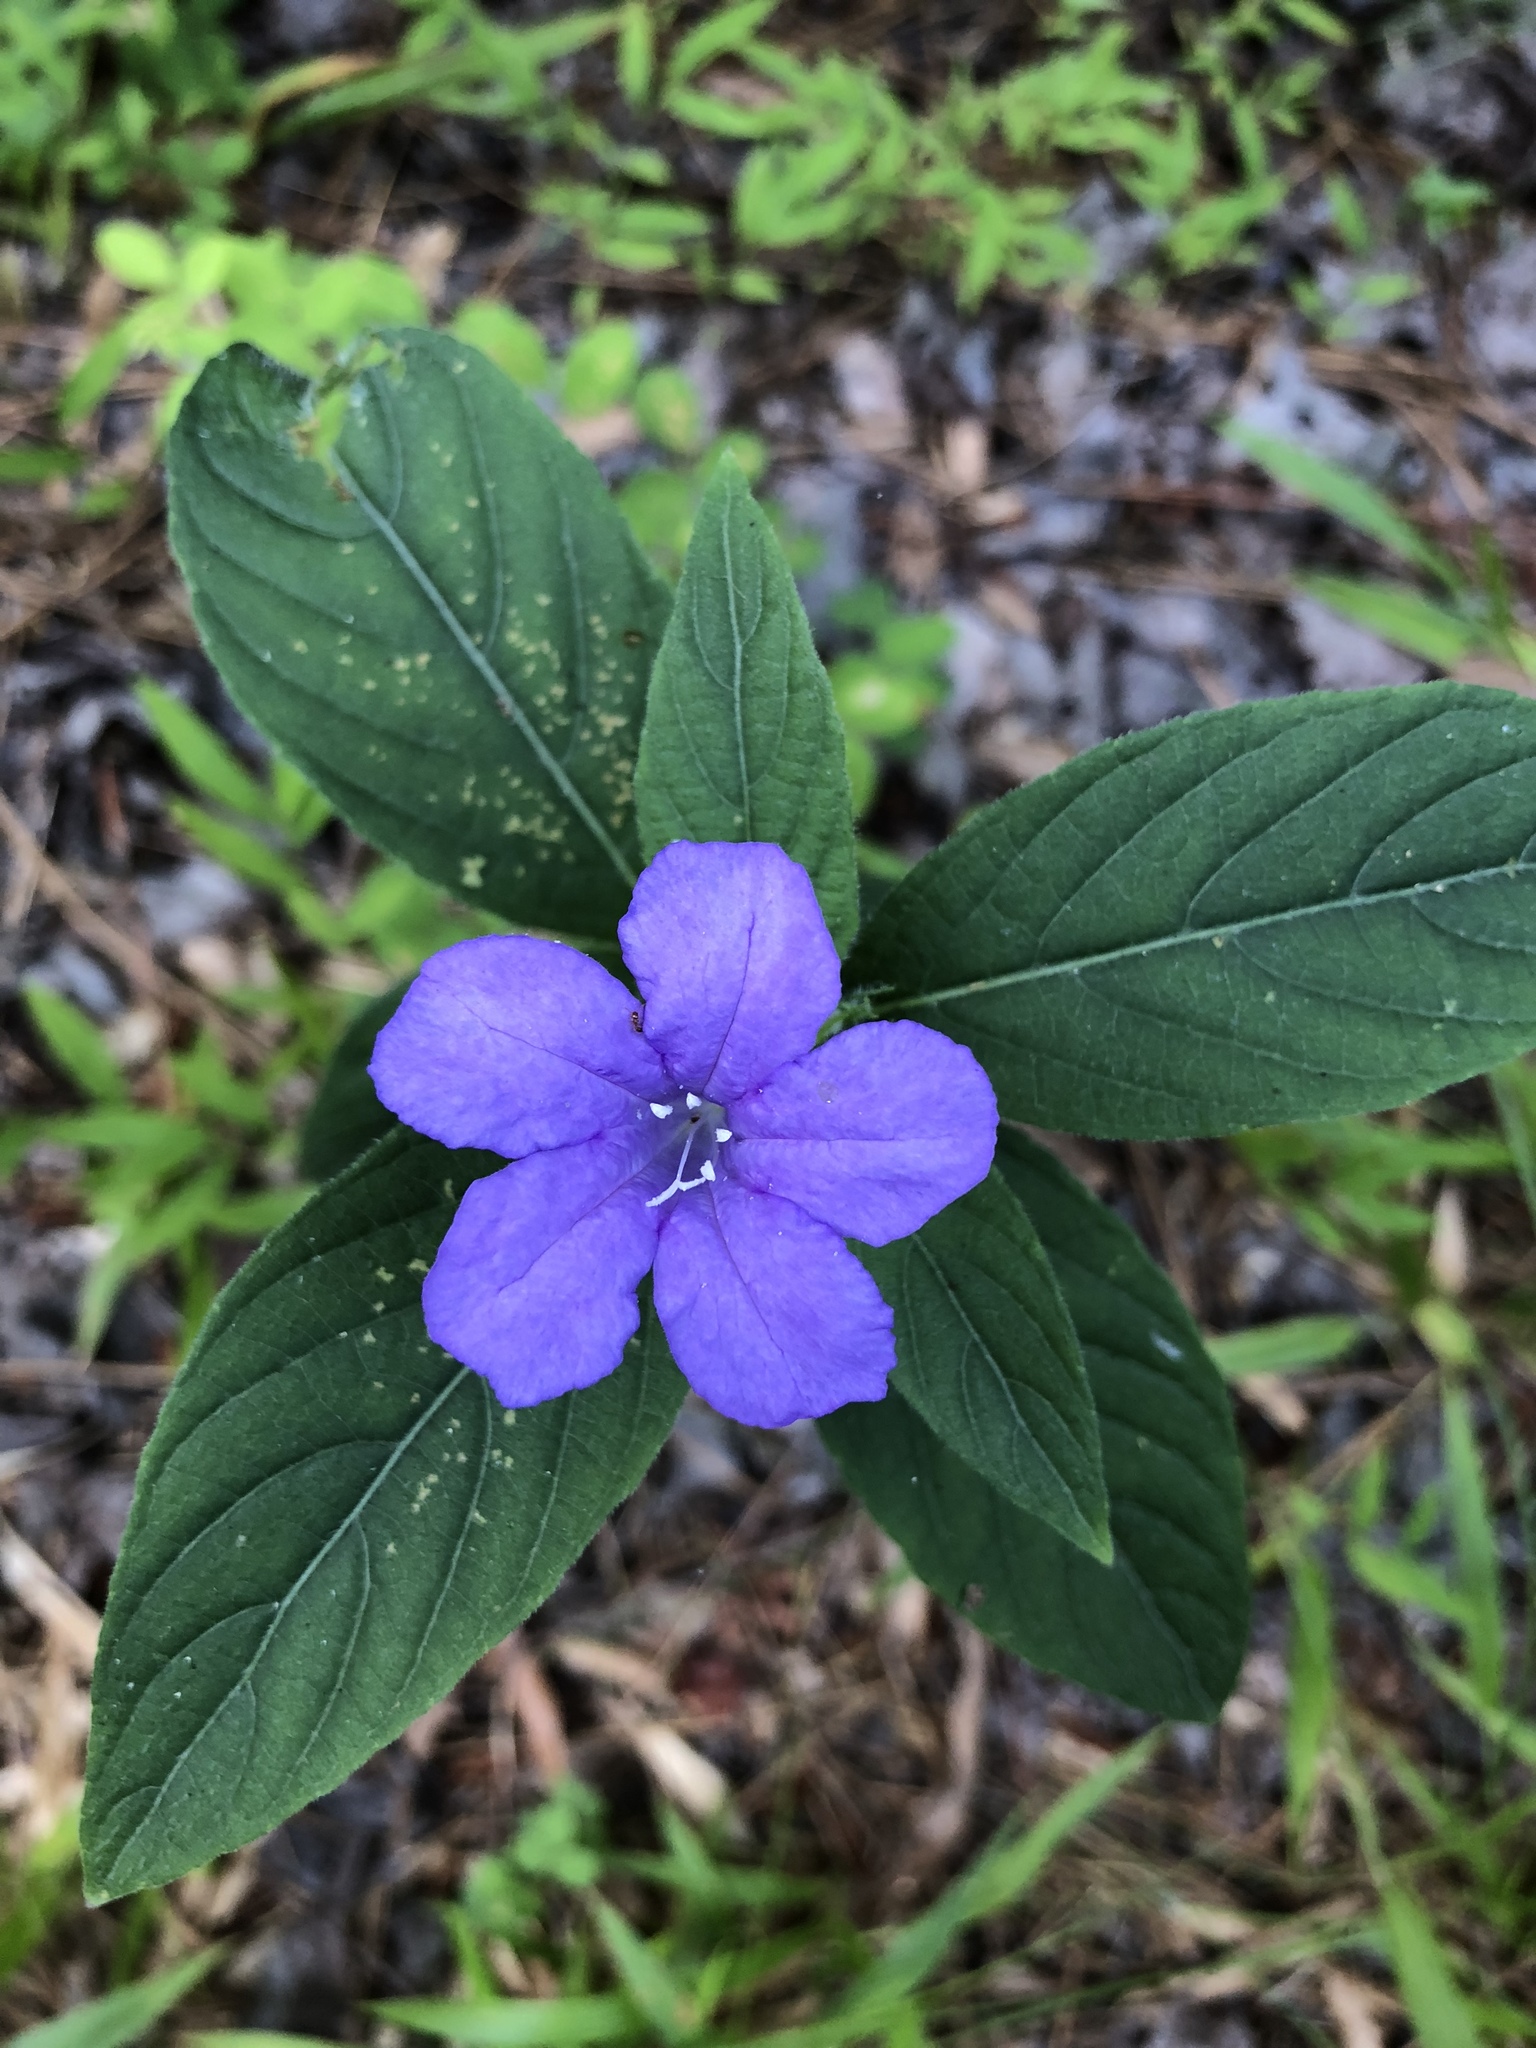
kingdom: Plantae
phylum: Tracheophyta
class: Magnoliopsida
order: Lamiales
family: Acanthaceae
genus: Ruellia
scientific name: Ruellia caroliniensis
